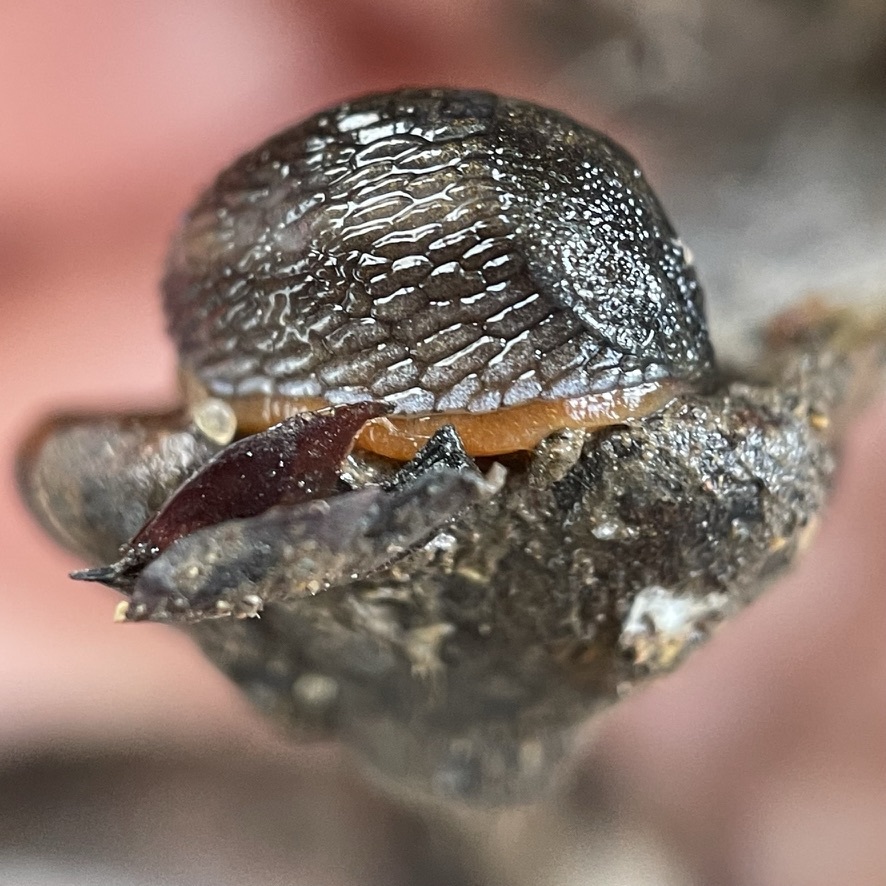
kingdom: Animalia
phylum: Mollusca
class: Gastropoda
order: Stylommatophora
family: Arionidae
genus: Arion
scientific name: Arion hortensis
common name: Garden arion
